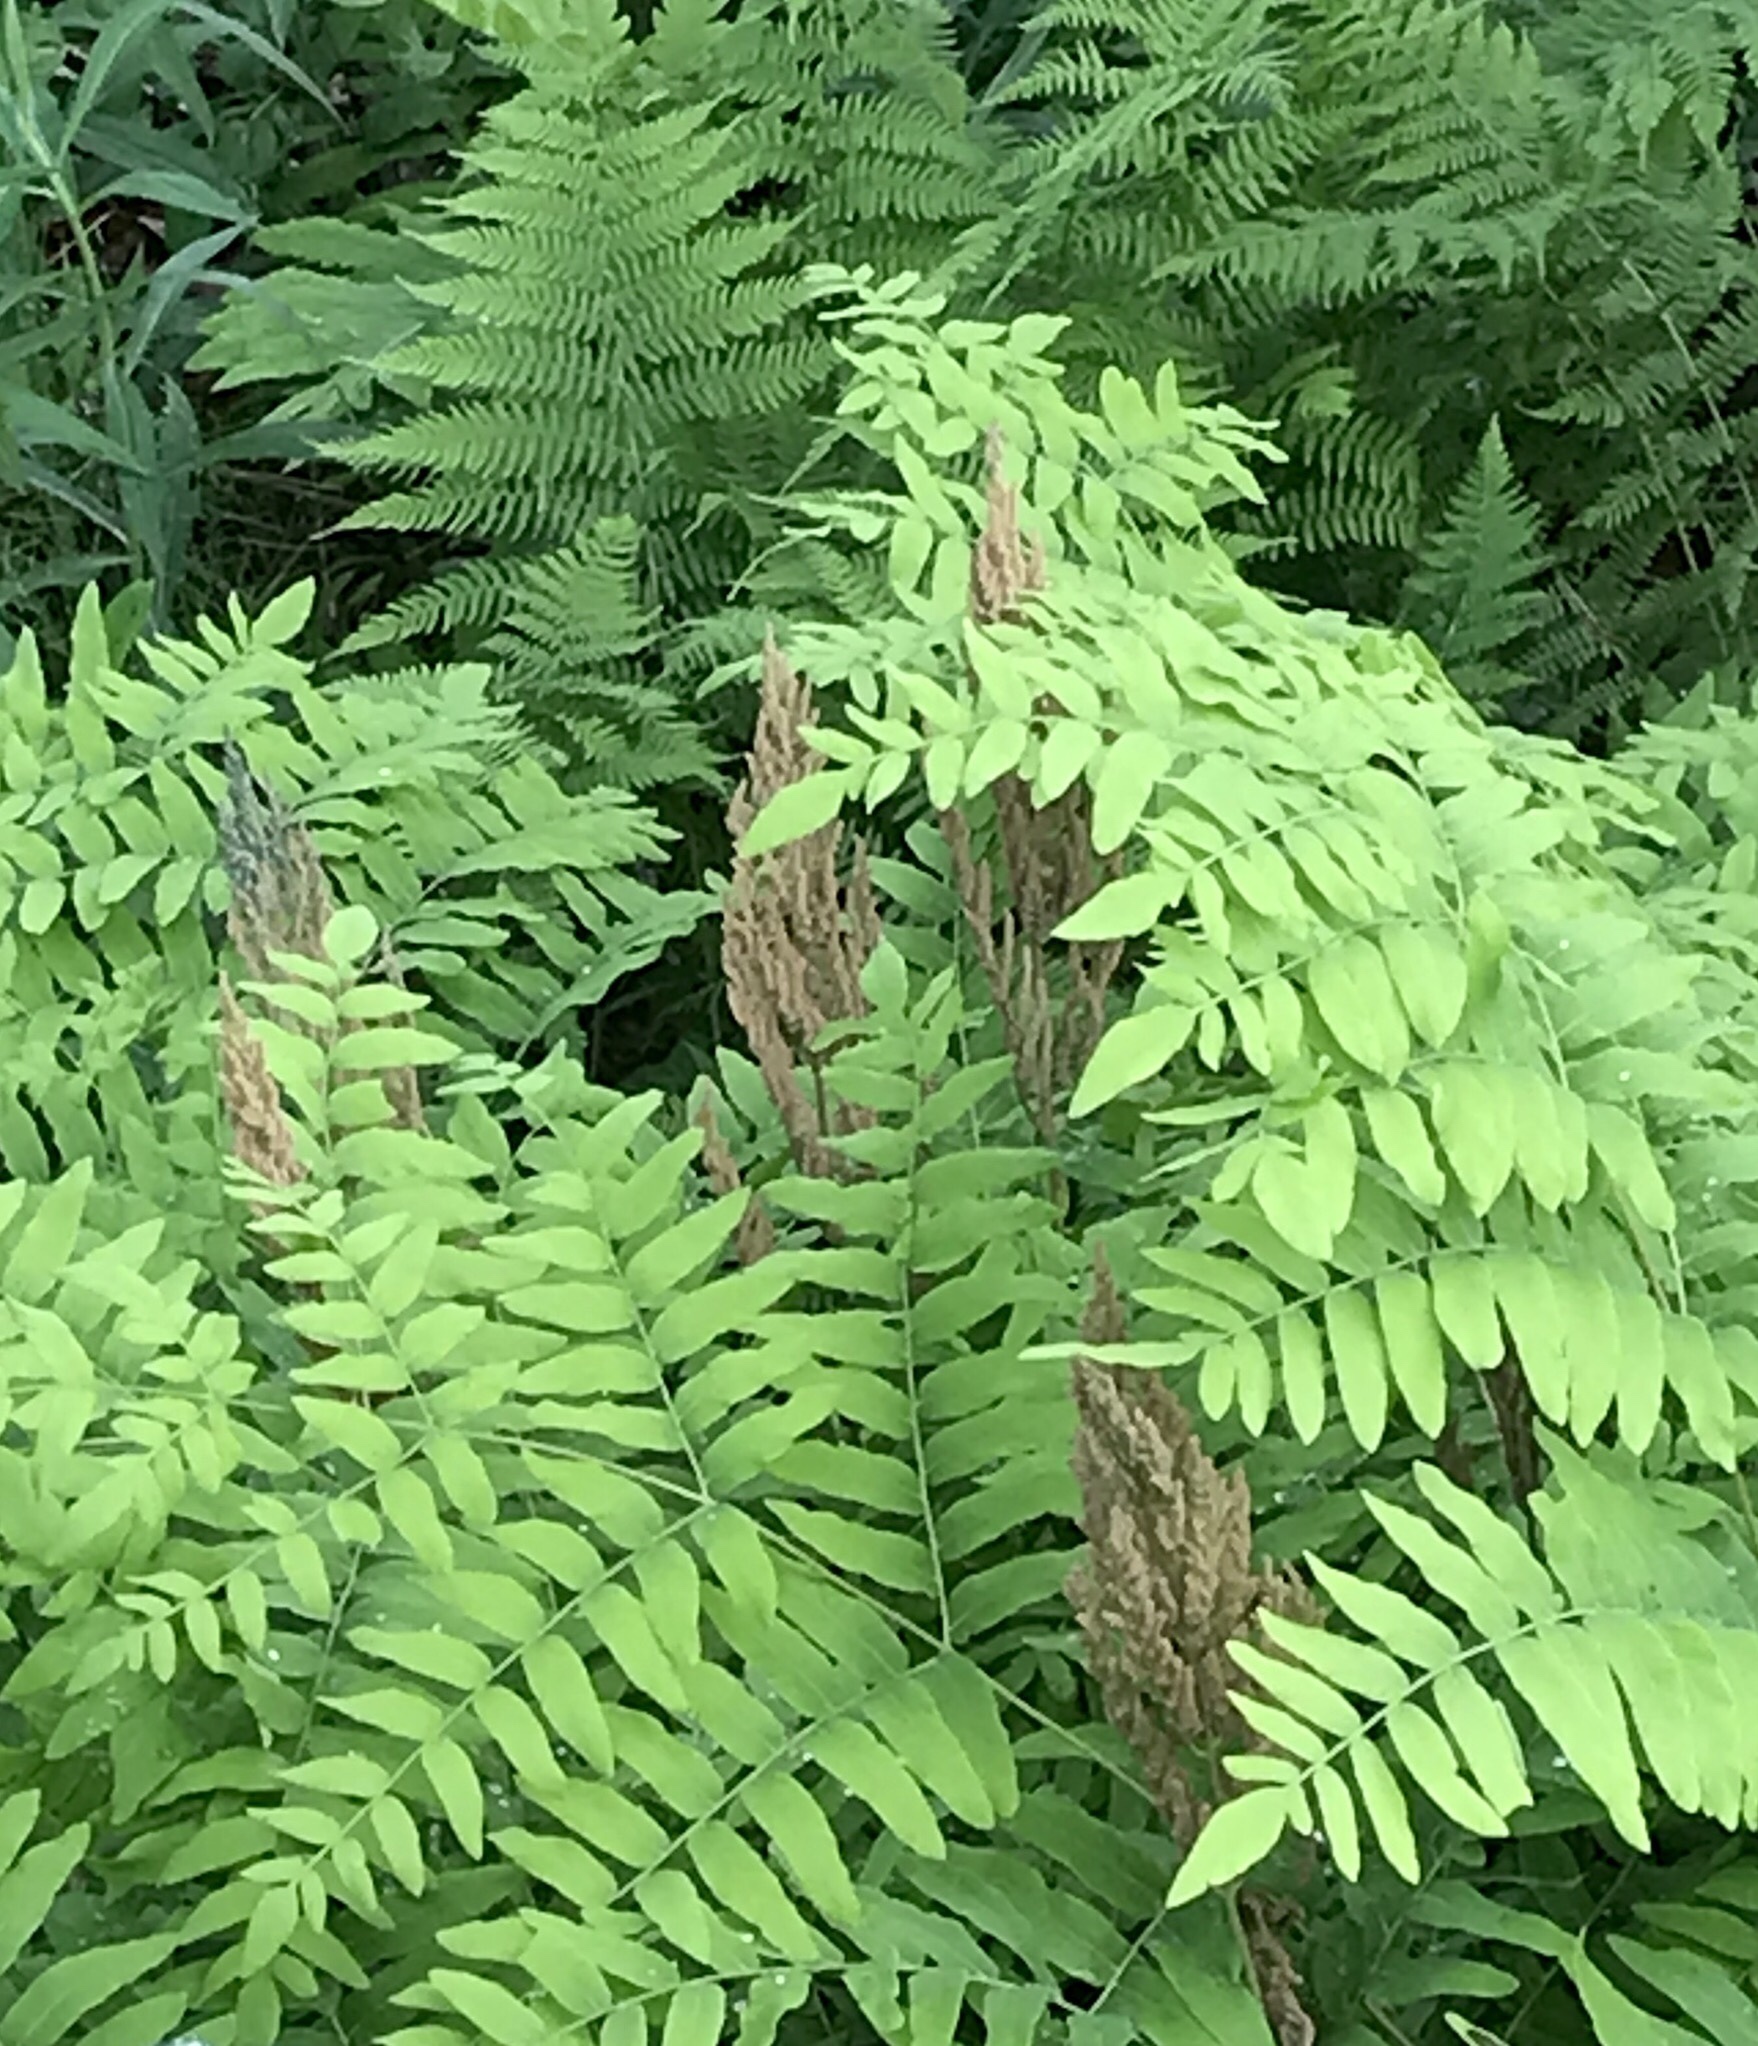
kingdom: Plantae
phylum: Tracheophyta
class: Polypodiopsida
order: Osmundales
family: Osmundaceae
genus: Osmunda
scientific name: Osmunda spectabilis
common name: American royal fern
